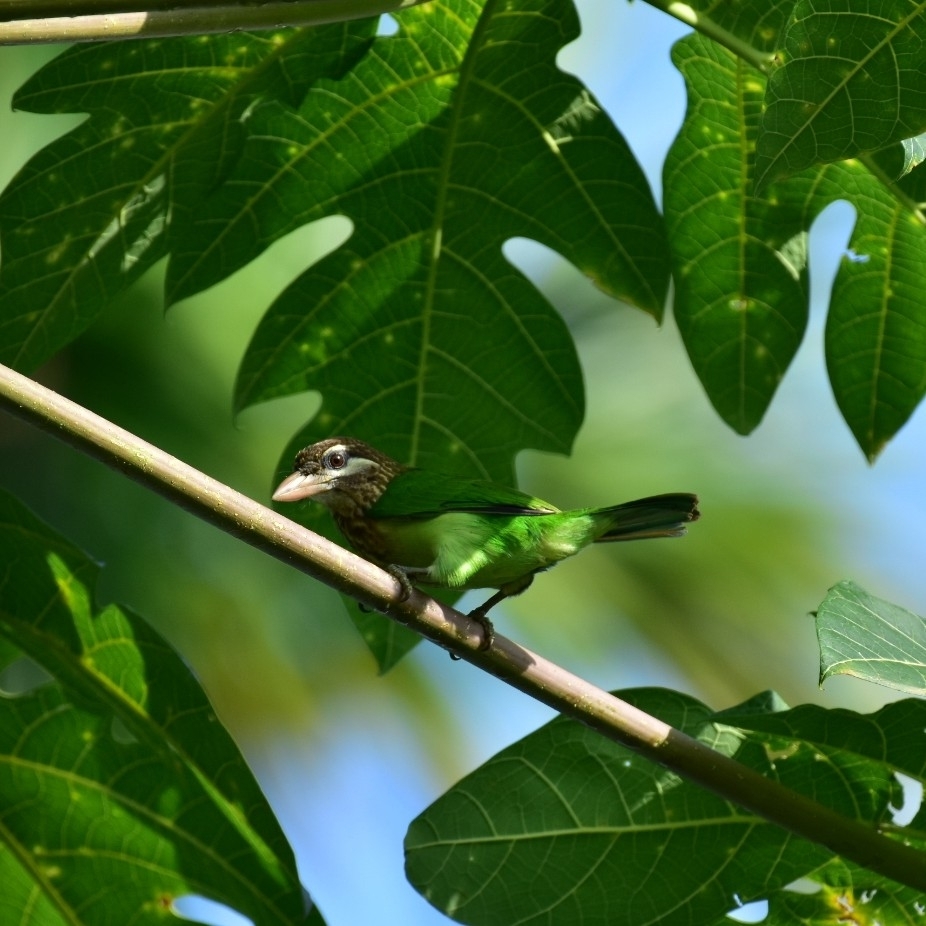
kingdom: Animalia
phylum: Chordata
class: Aves
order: Piciformes
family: Megalaimidae
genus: Psilopogon
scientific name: Psilopogon viridis
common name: White-cheeked barbet
